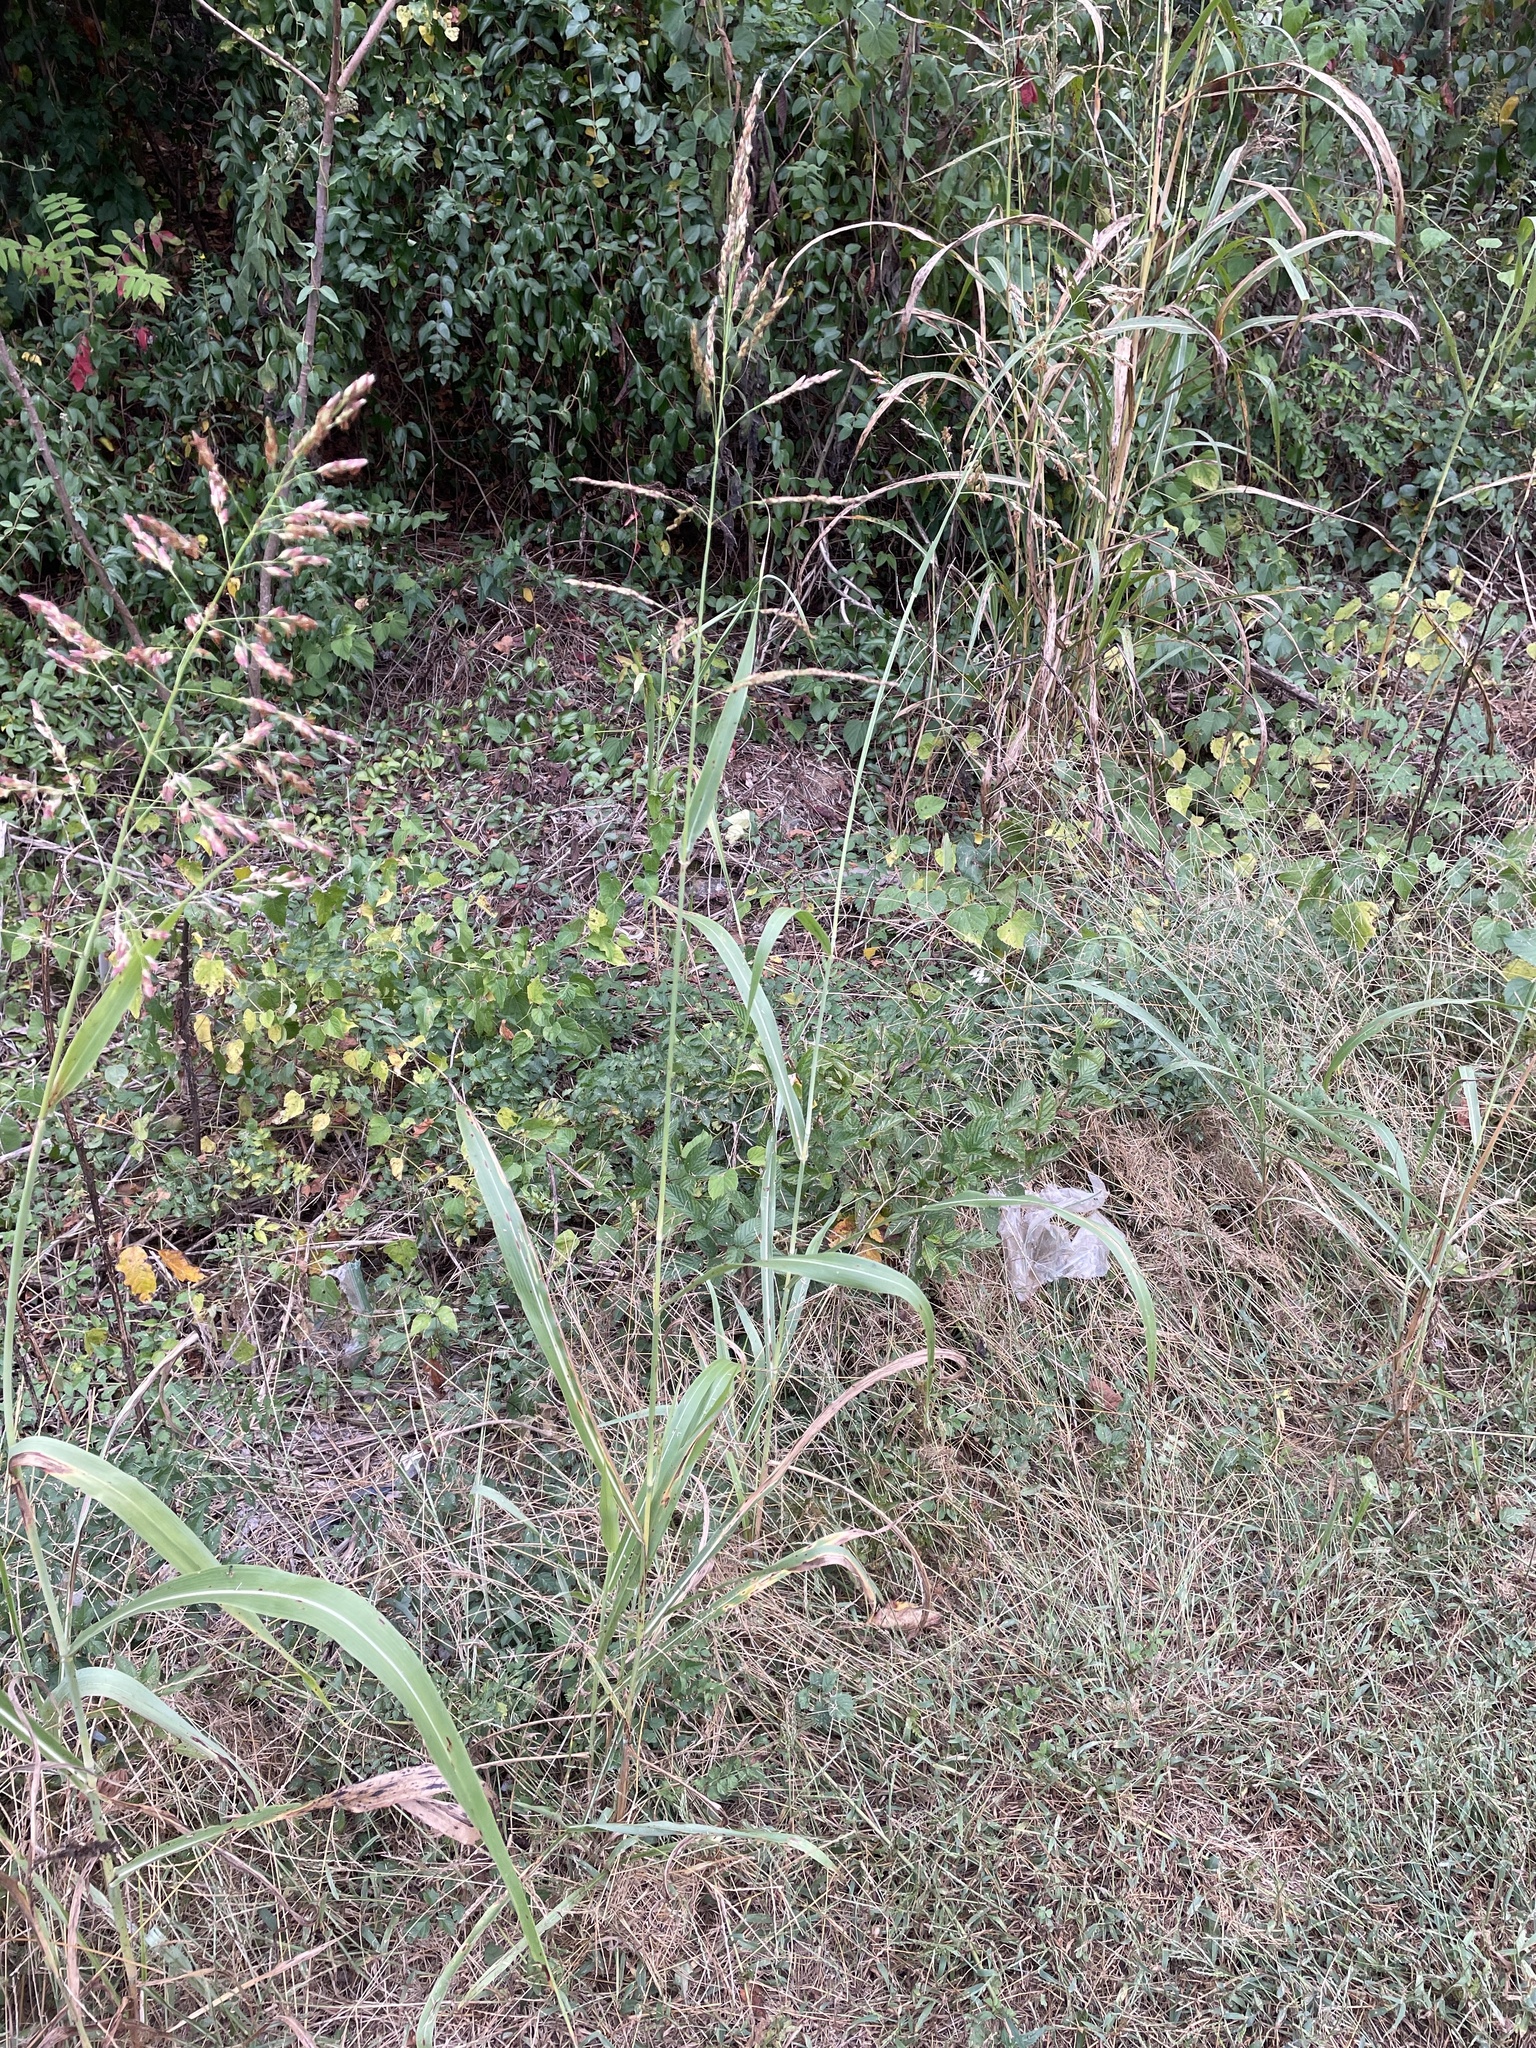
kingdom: Plantae
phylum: Tracheophyta
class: Liliopsida
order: Poales
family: Poaceae
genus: Sorghum
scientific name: Sorghum halepense
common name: Johnson-grass
